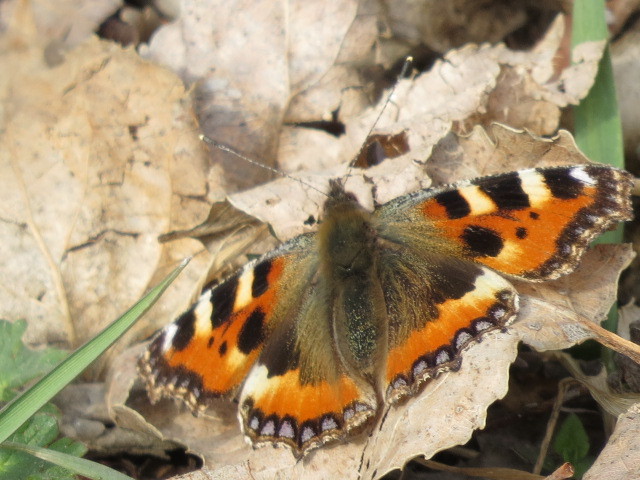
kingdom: Animalia
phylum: Arthropoda
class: Insecta
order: Lepidoptera
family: Nymphalidae
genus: Aglais
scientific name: Aglais urticae
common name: Small tortoiseshell
